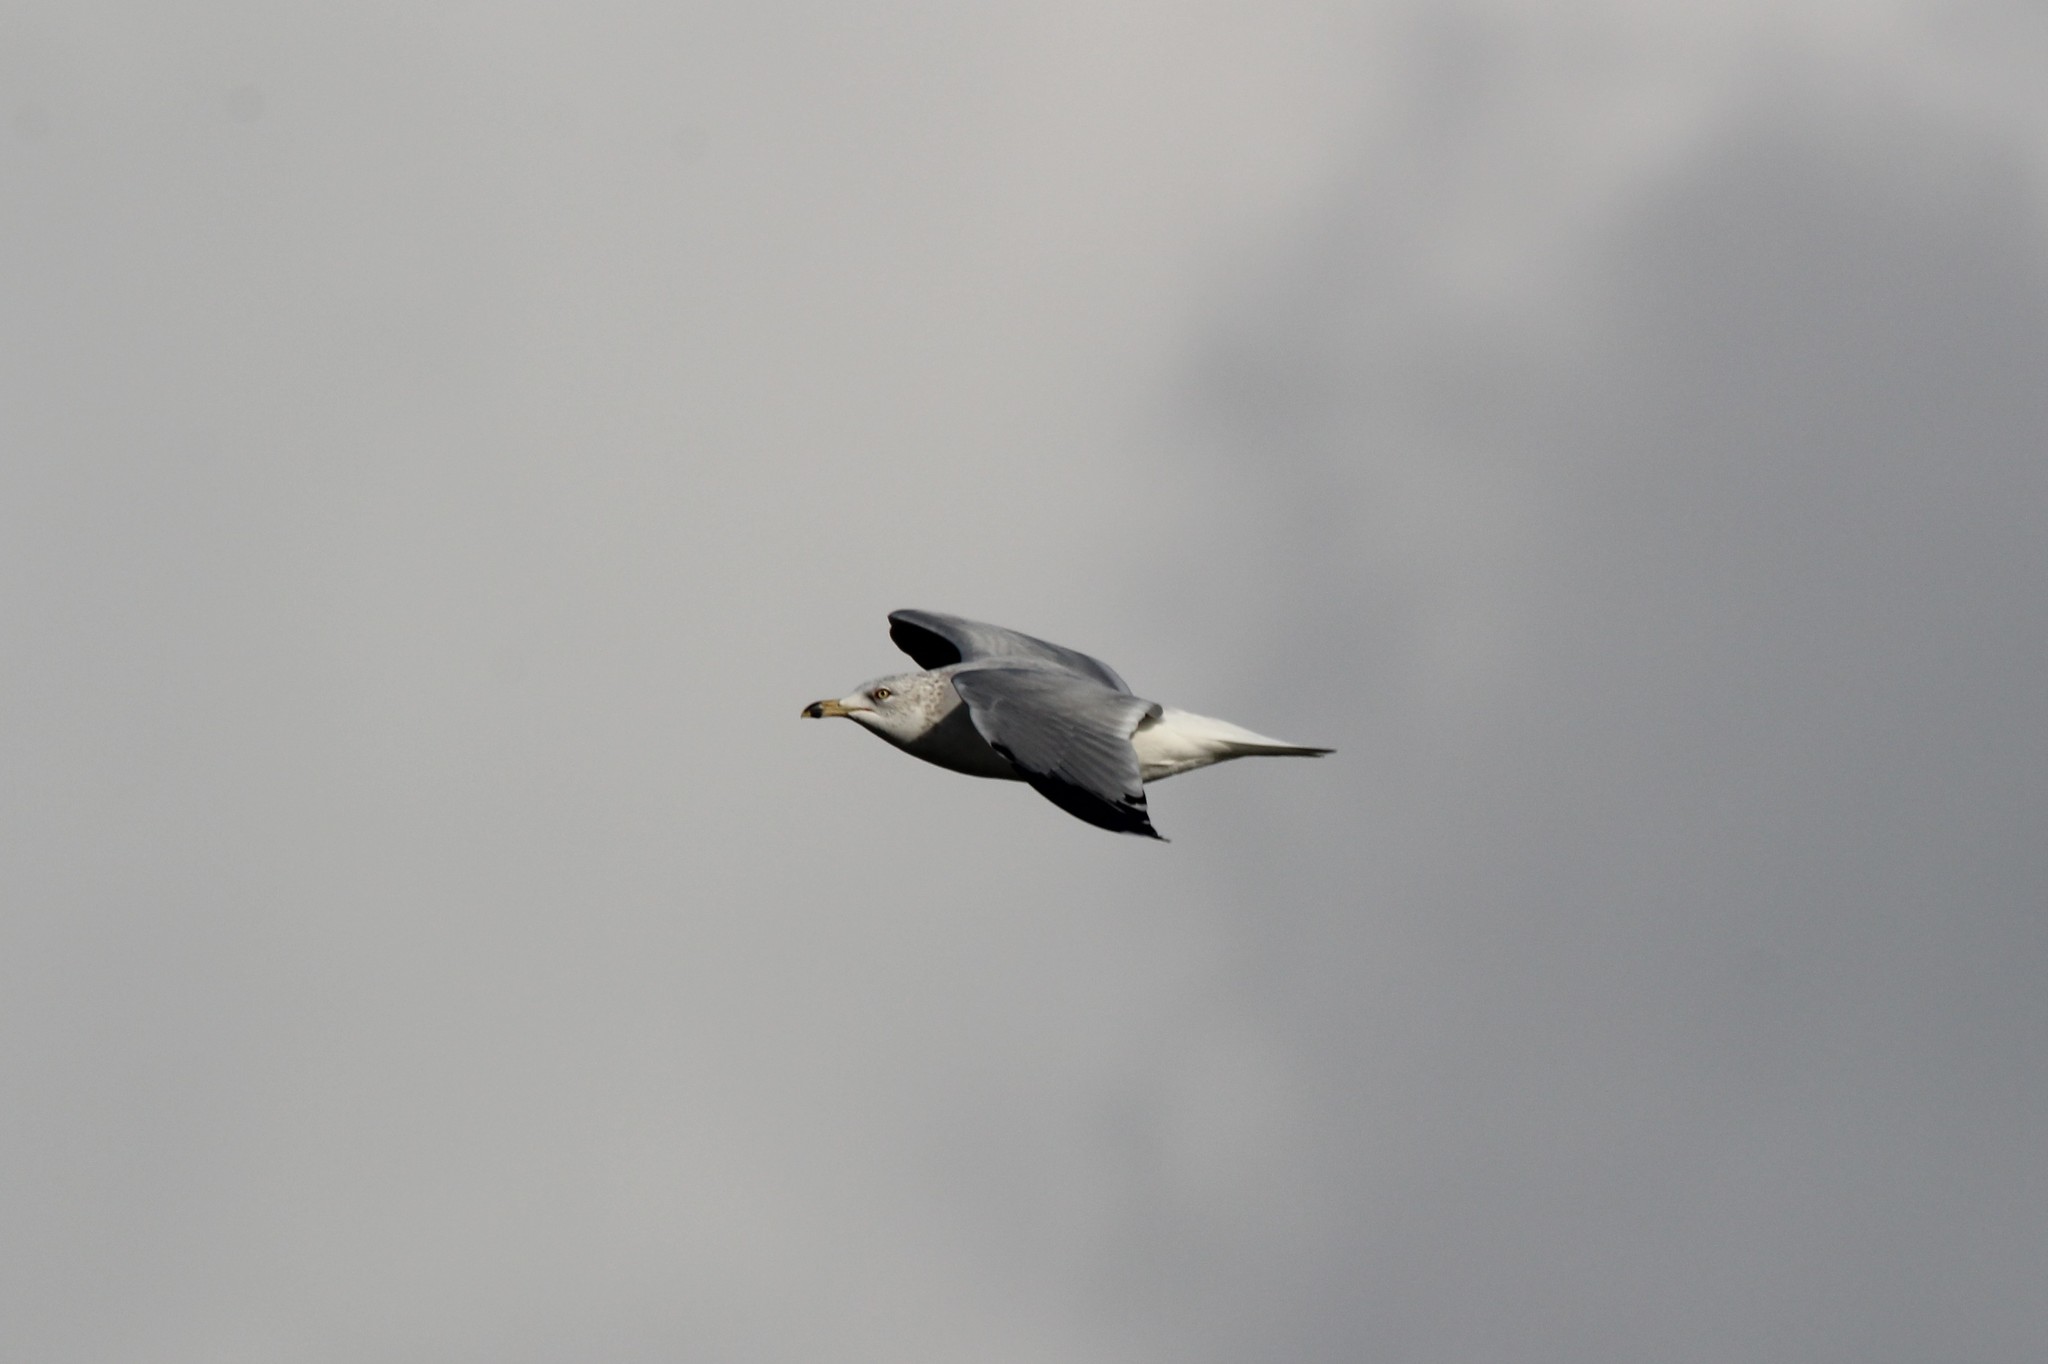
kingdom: Animalia
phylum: Chordata
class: Aves
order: Charadriiformes
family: Laridae
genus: Larus
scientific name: Larus delawarensis
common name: Ring-billed gull
